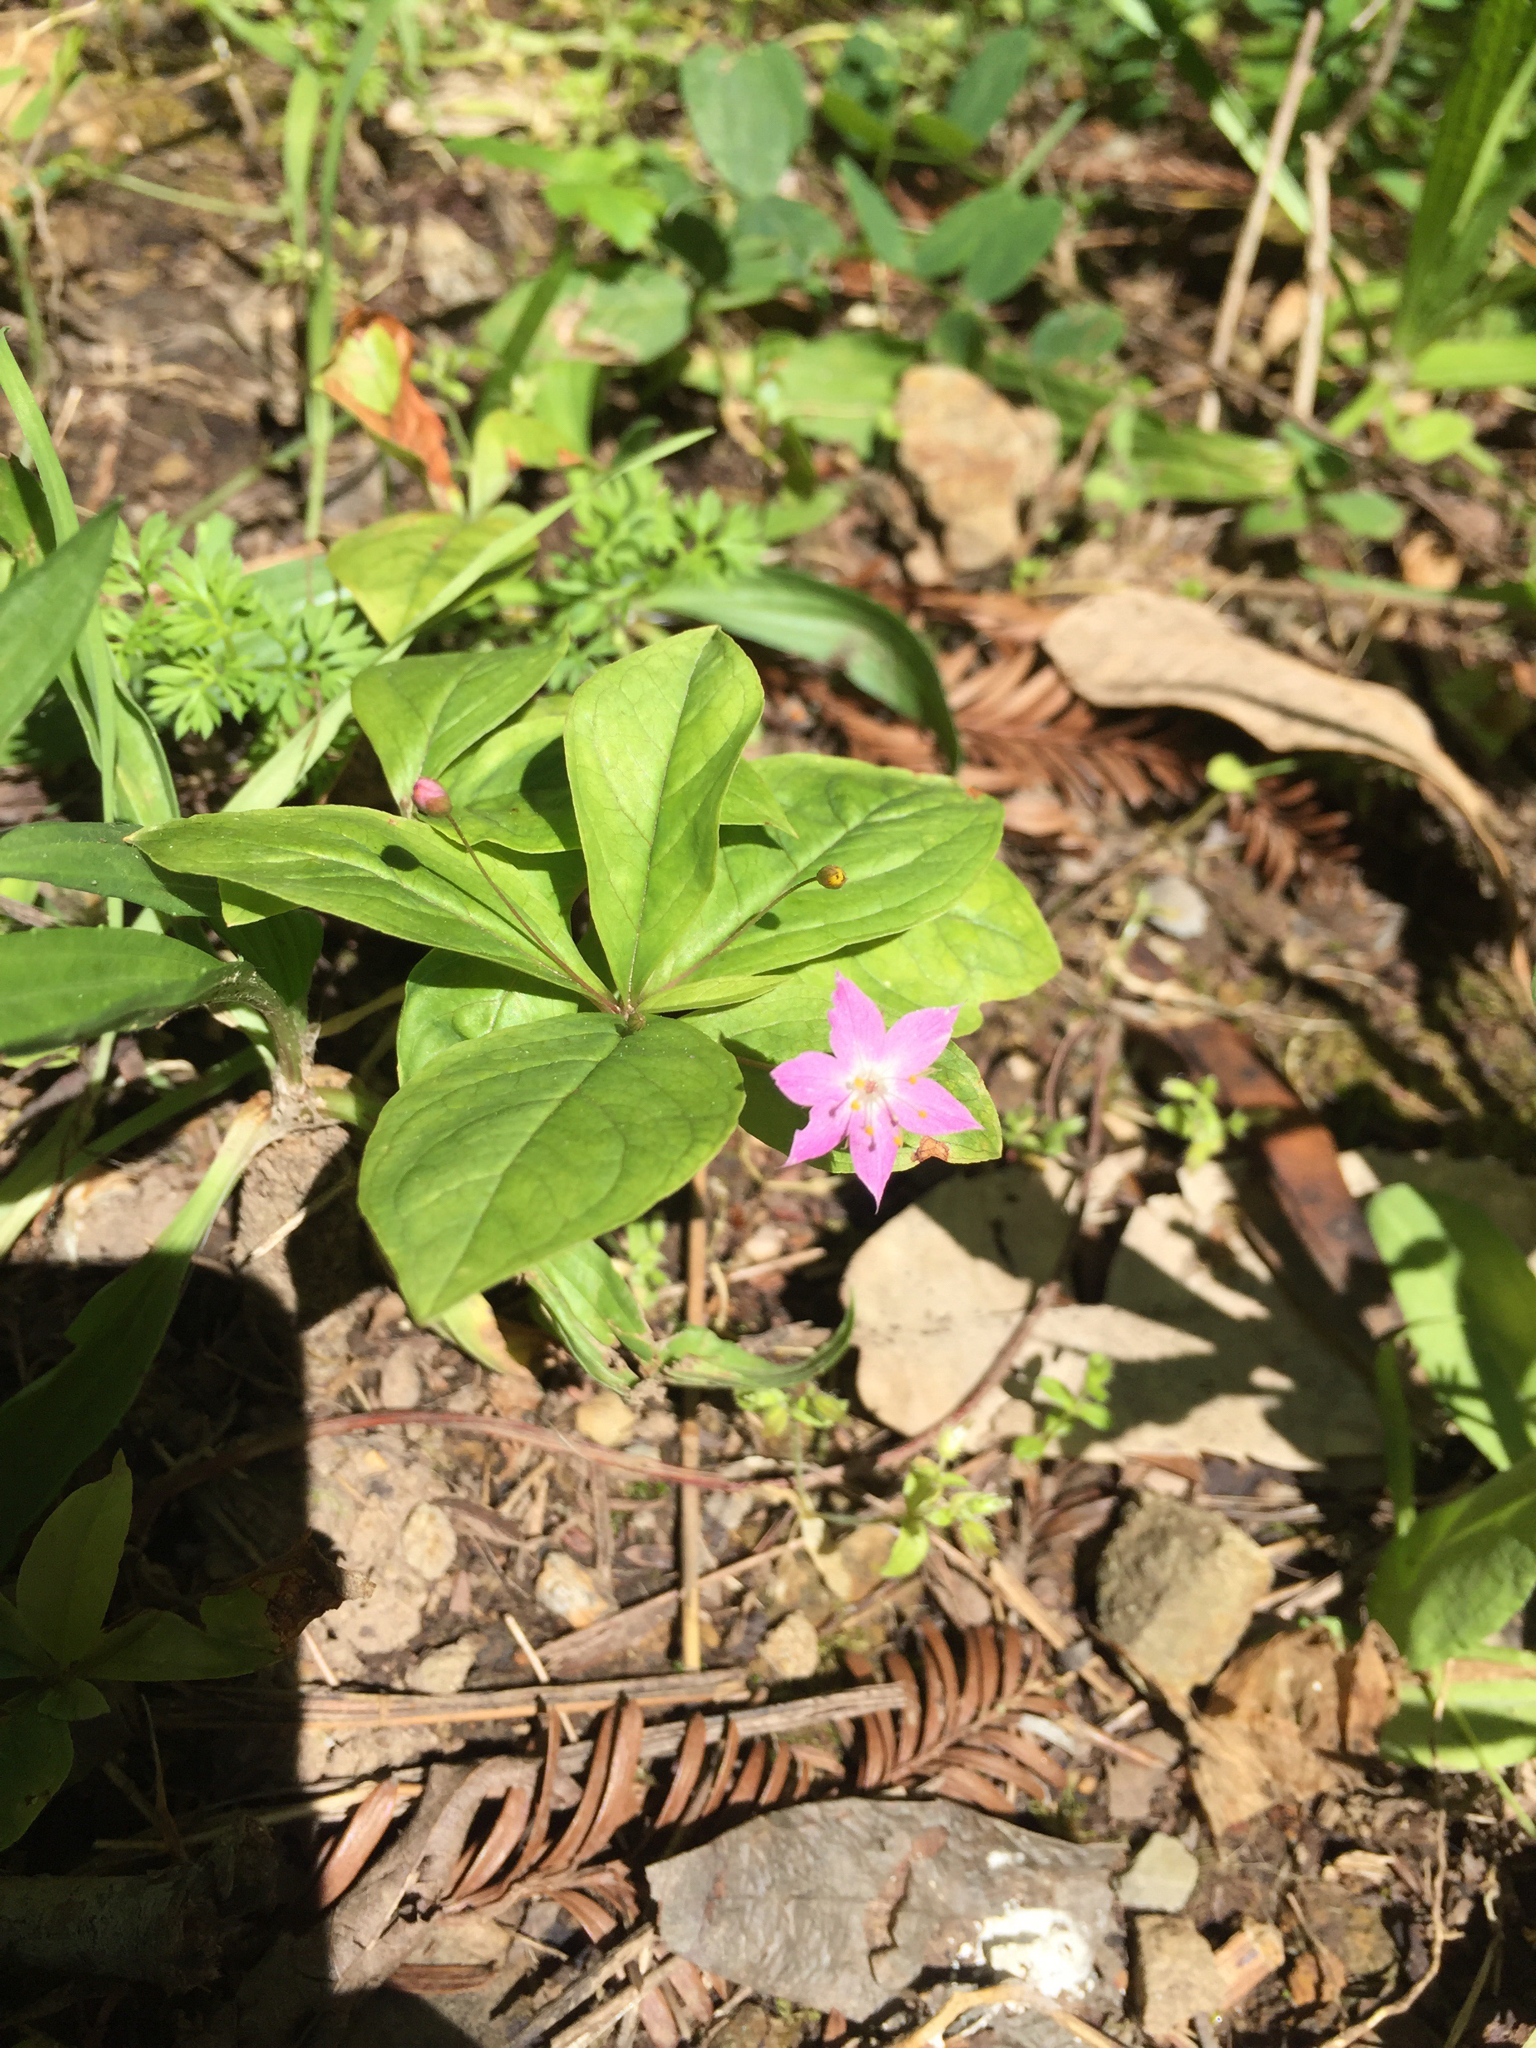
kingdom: Plantae
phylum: Tracheophyta
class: Magnoliopsida
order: Ericales
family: Primulaceae
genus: Lysimachia
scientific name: Lysimachia latifolia
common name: Pacific starflower
